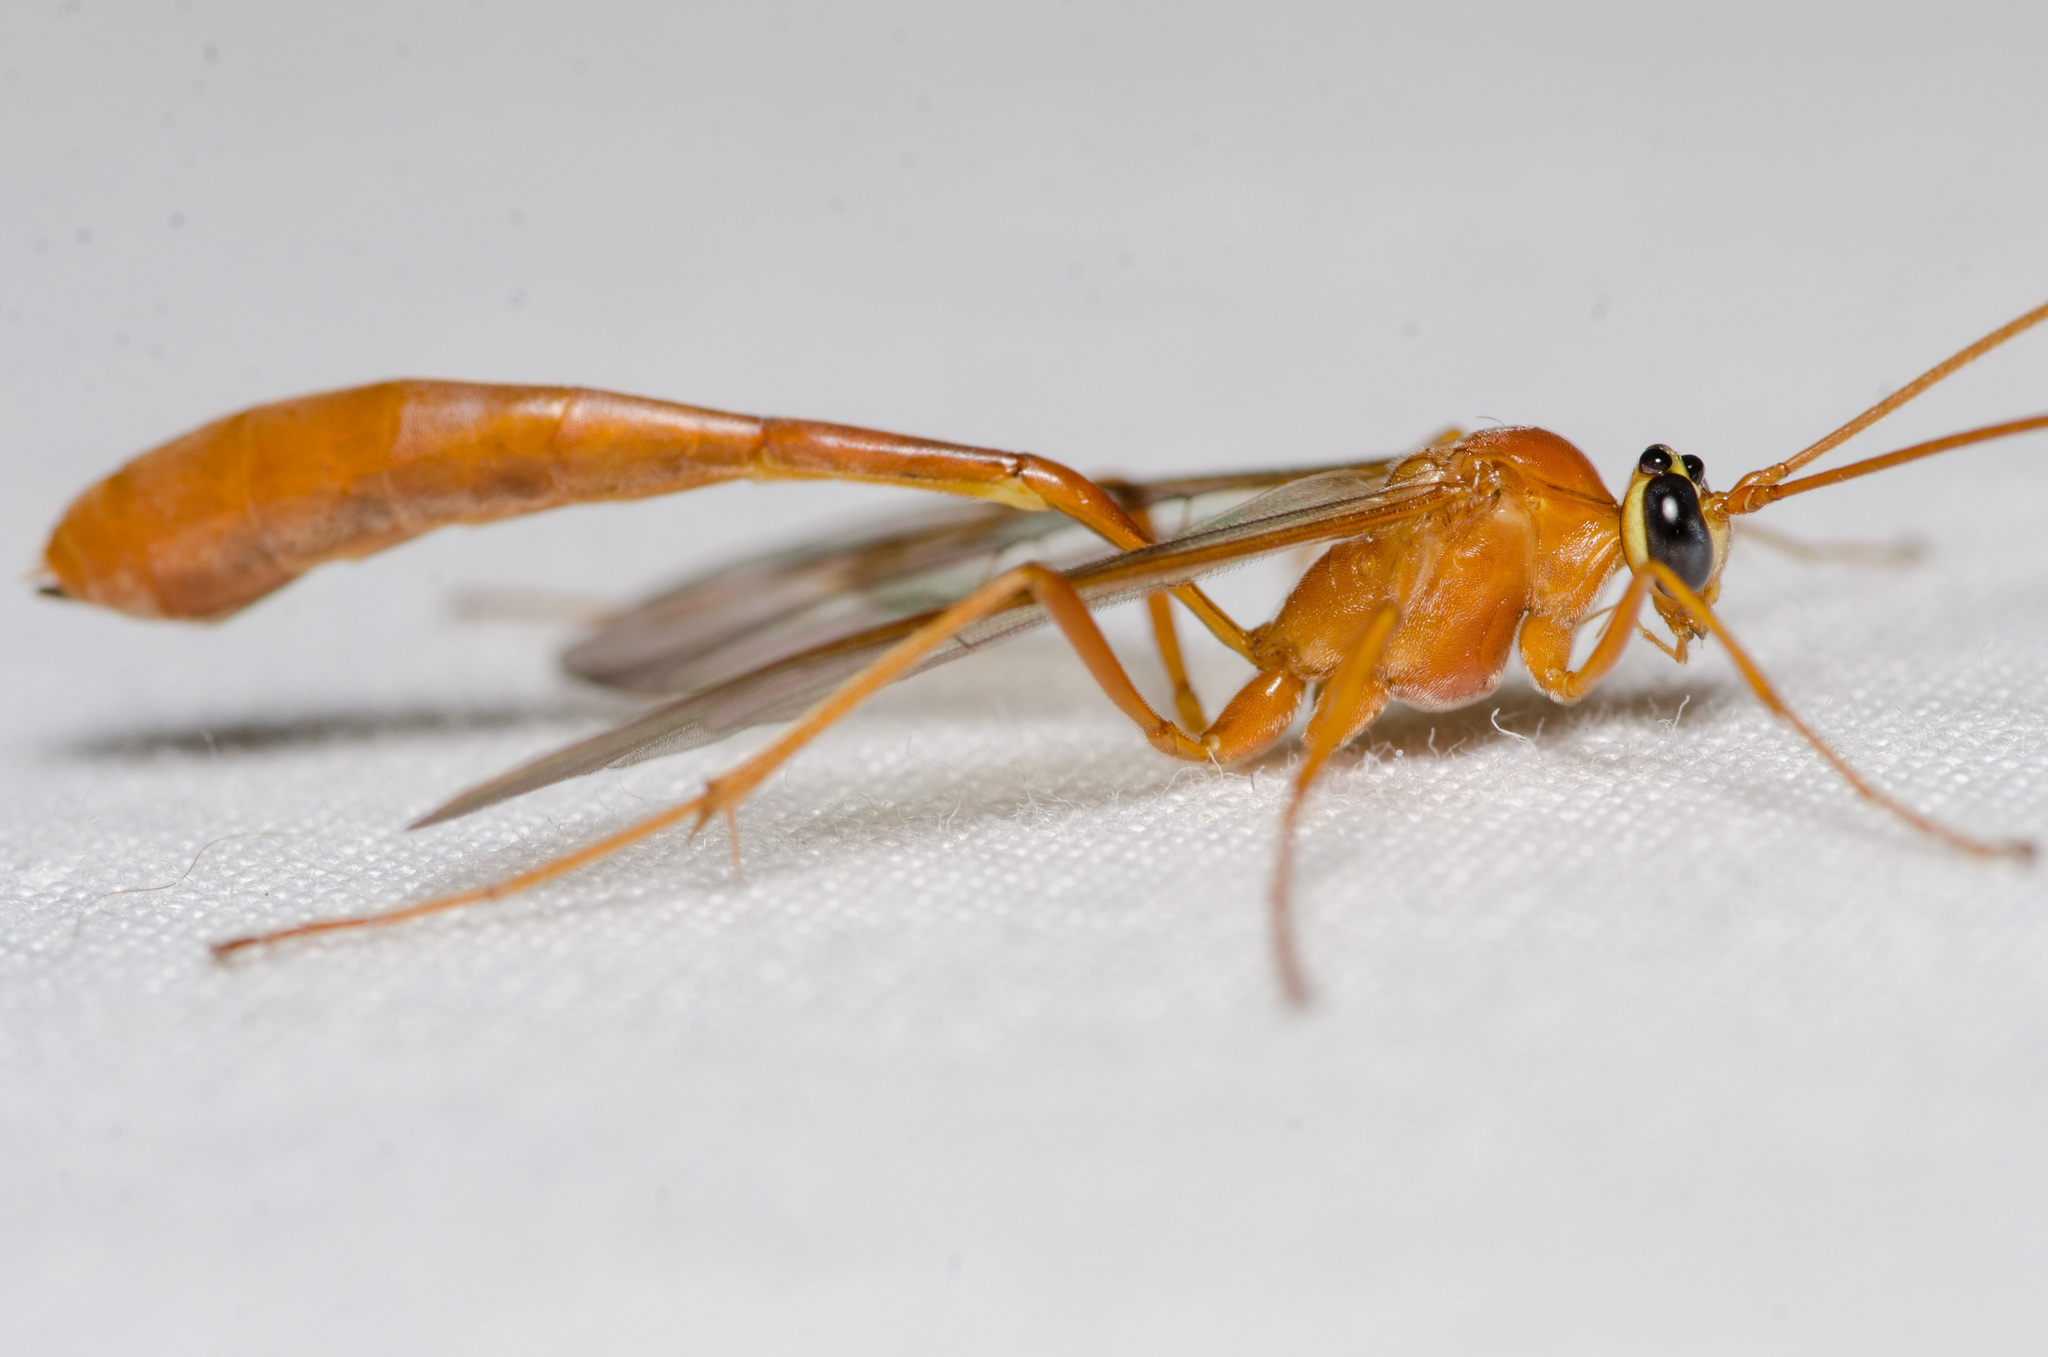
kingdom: Animalia
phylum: Arthropoda
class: Insecta
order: Hymenoptera
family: Ichneumonidae
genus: Enicospilus
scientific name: Enicospilus purgatus
